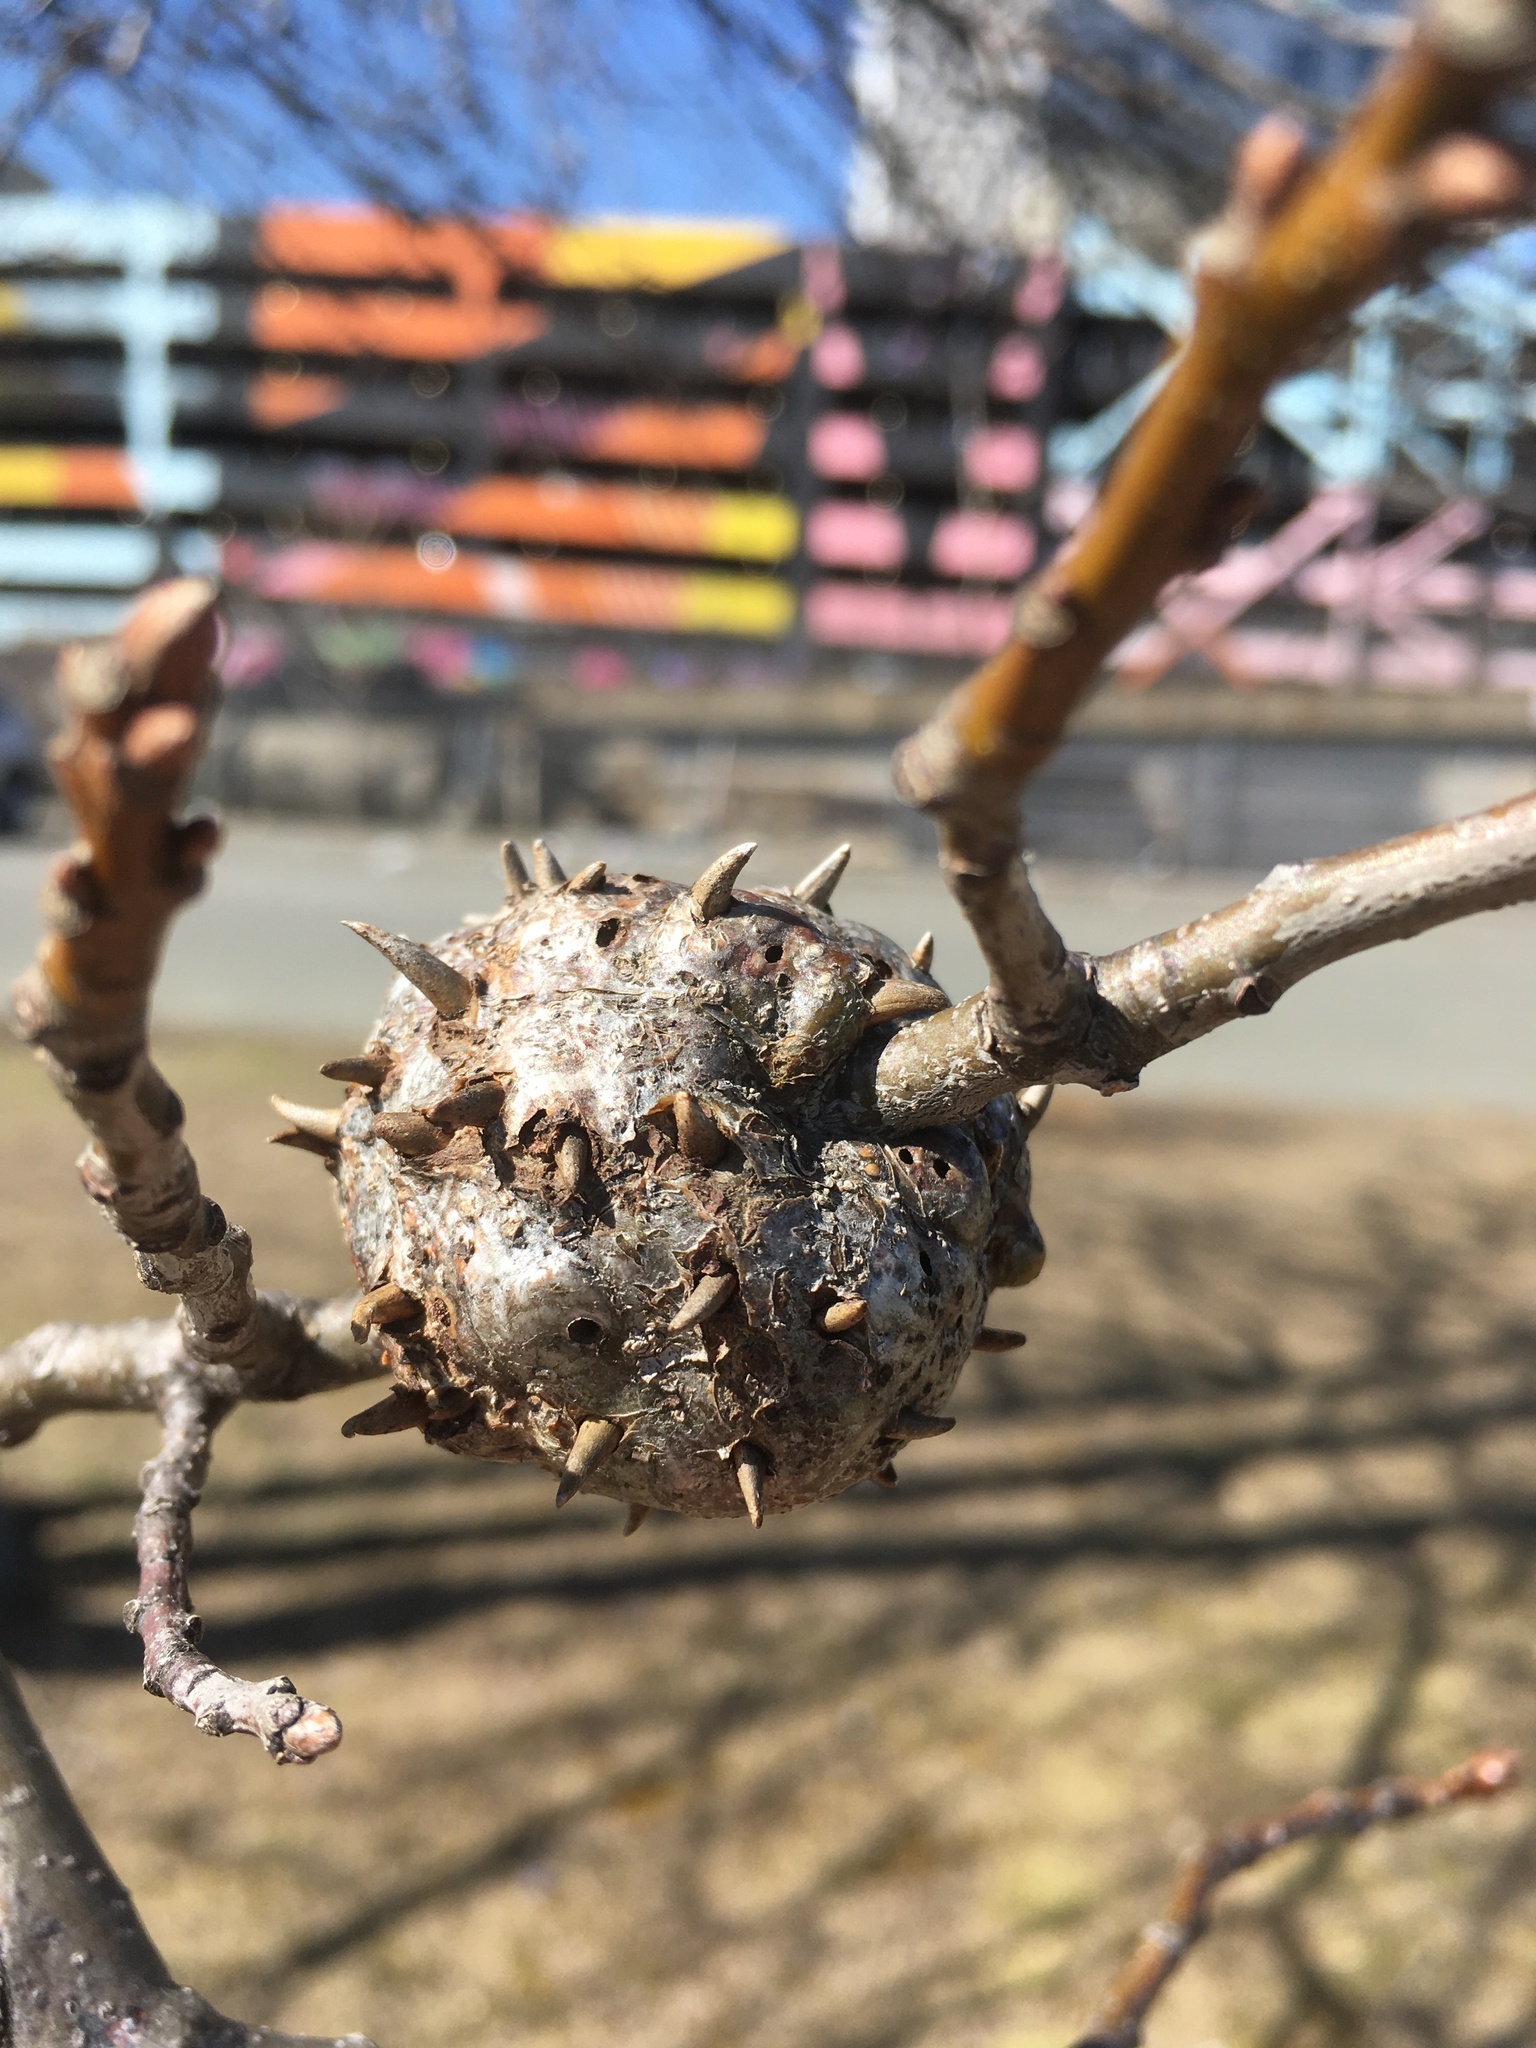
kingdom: Animalia
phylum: Arthropoda
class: Insecta
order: Hymenoptera
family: Cynipidae
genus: Callirhytis
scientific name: Callirhytis
